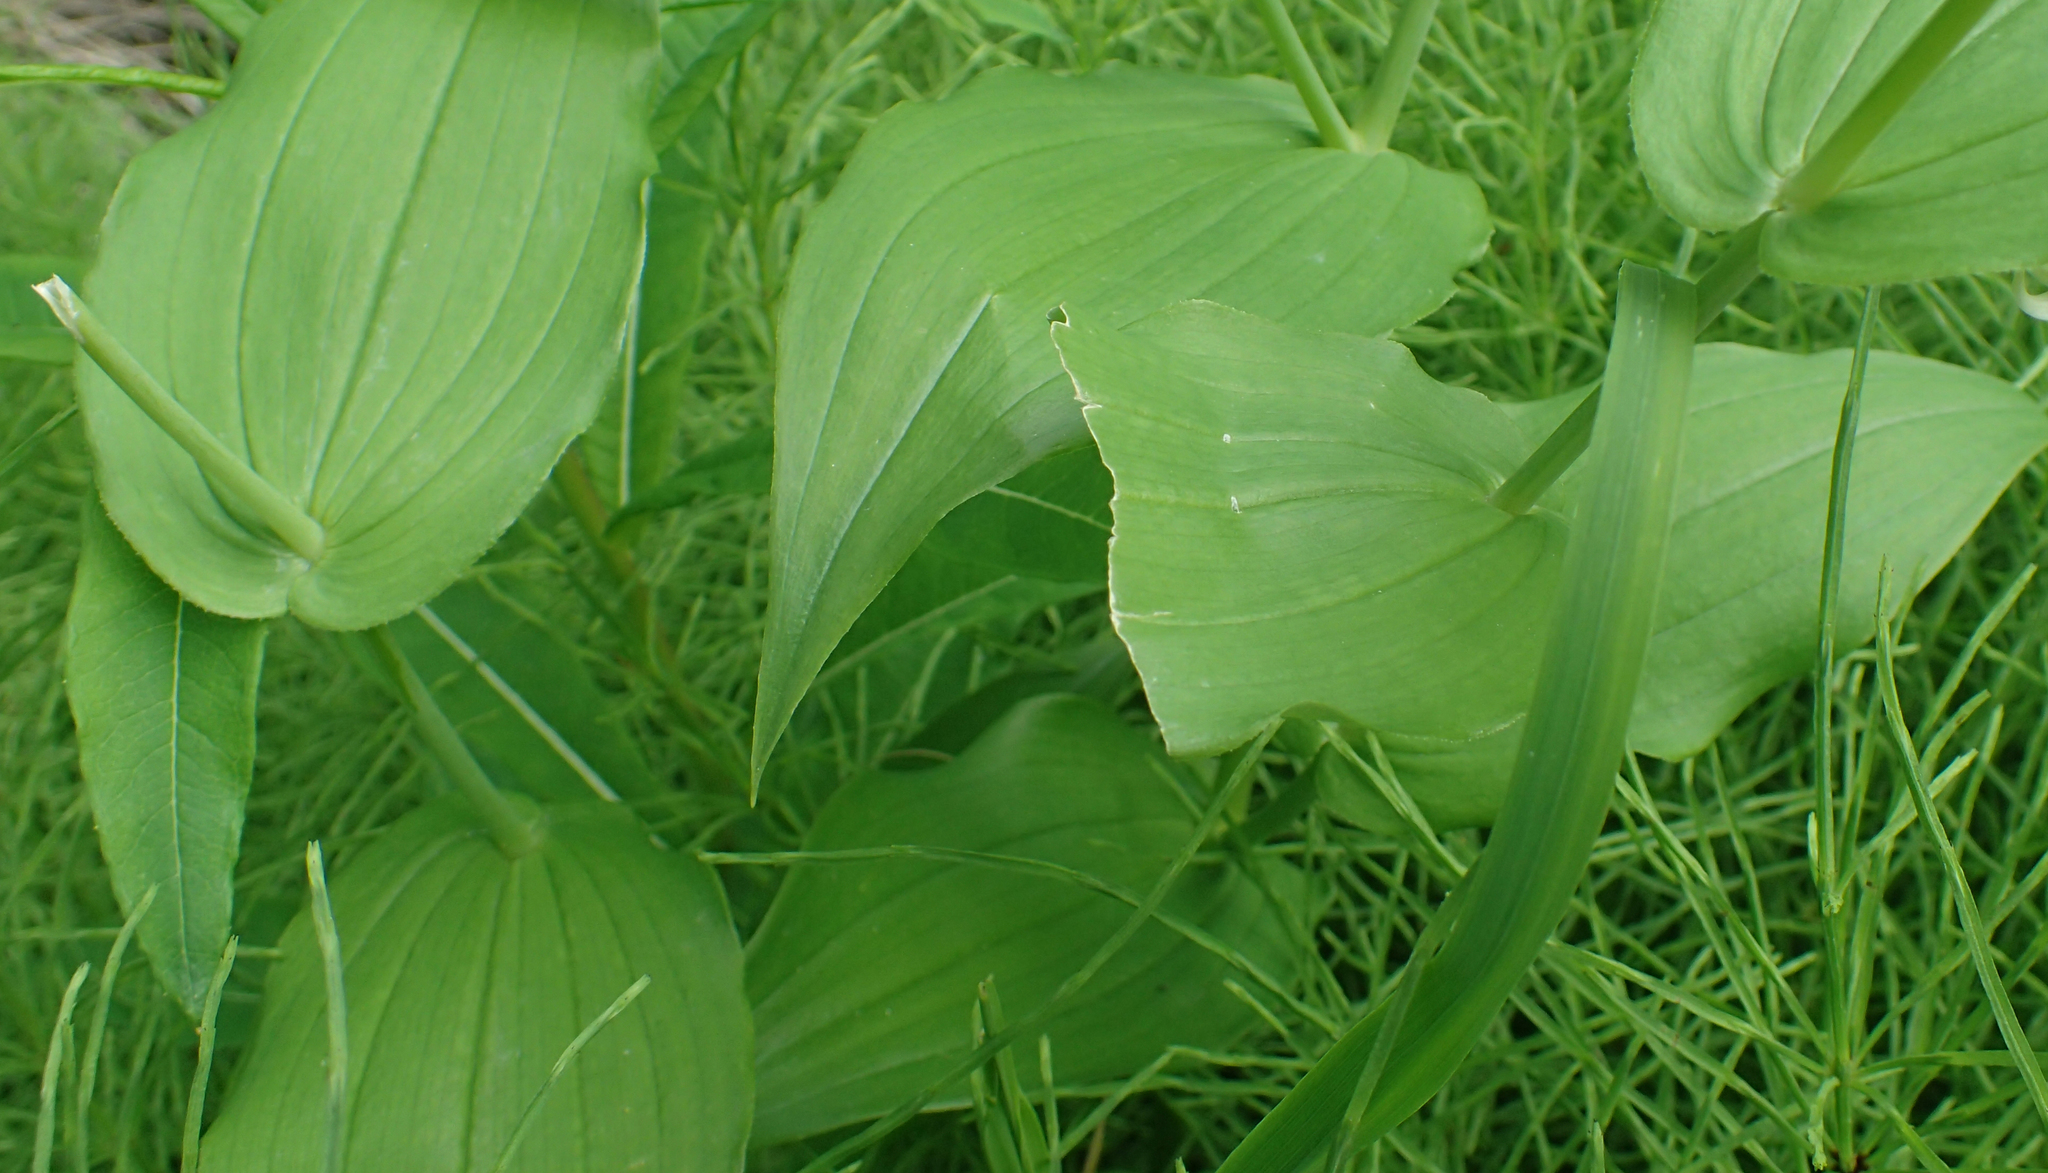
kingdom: Plantae
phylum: Tracheophyta
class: Liliopsida
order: Liliales
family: Liliaceae
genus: Streptopus
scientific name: Streptopus amplexifolius
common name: Clasp twisted stalk
